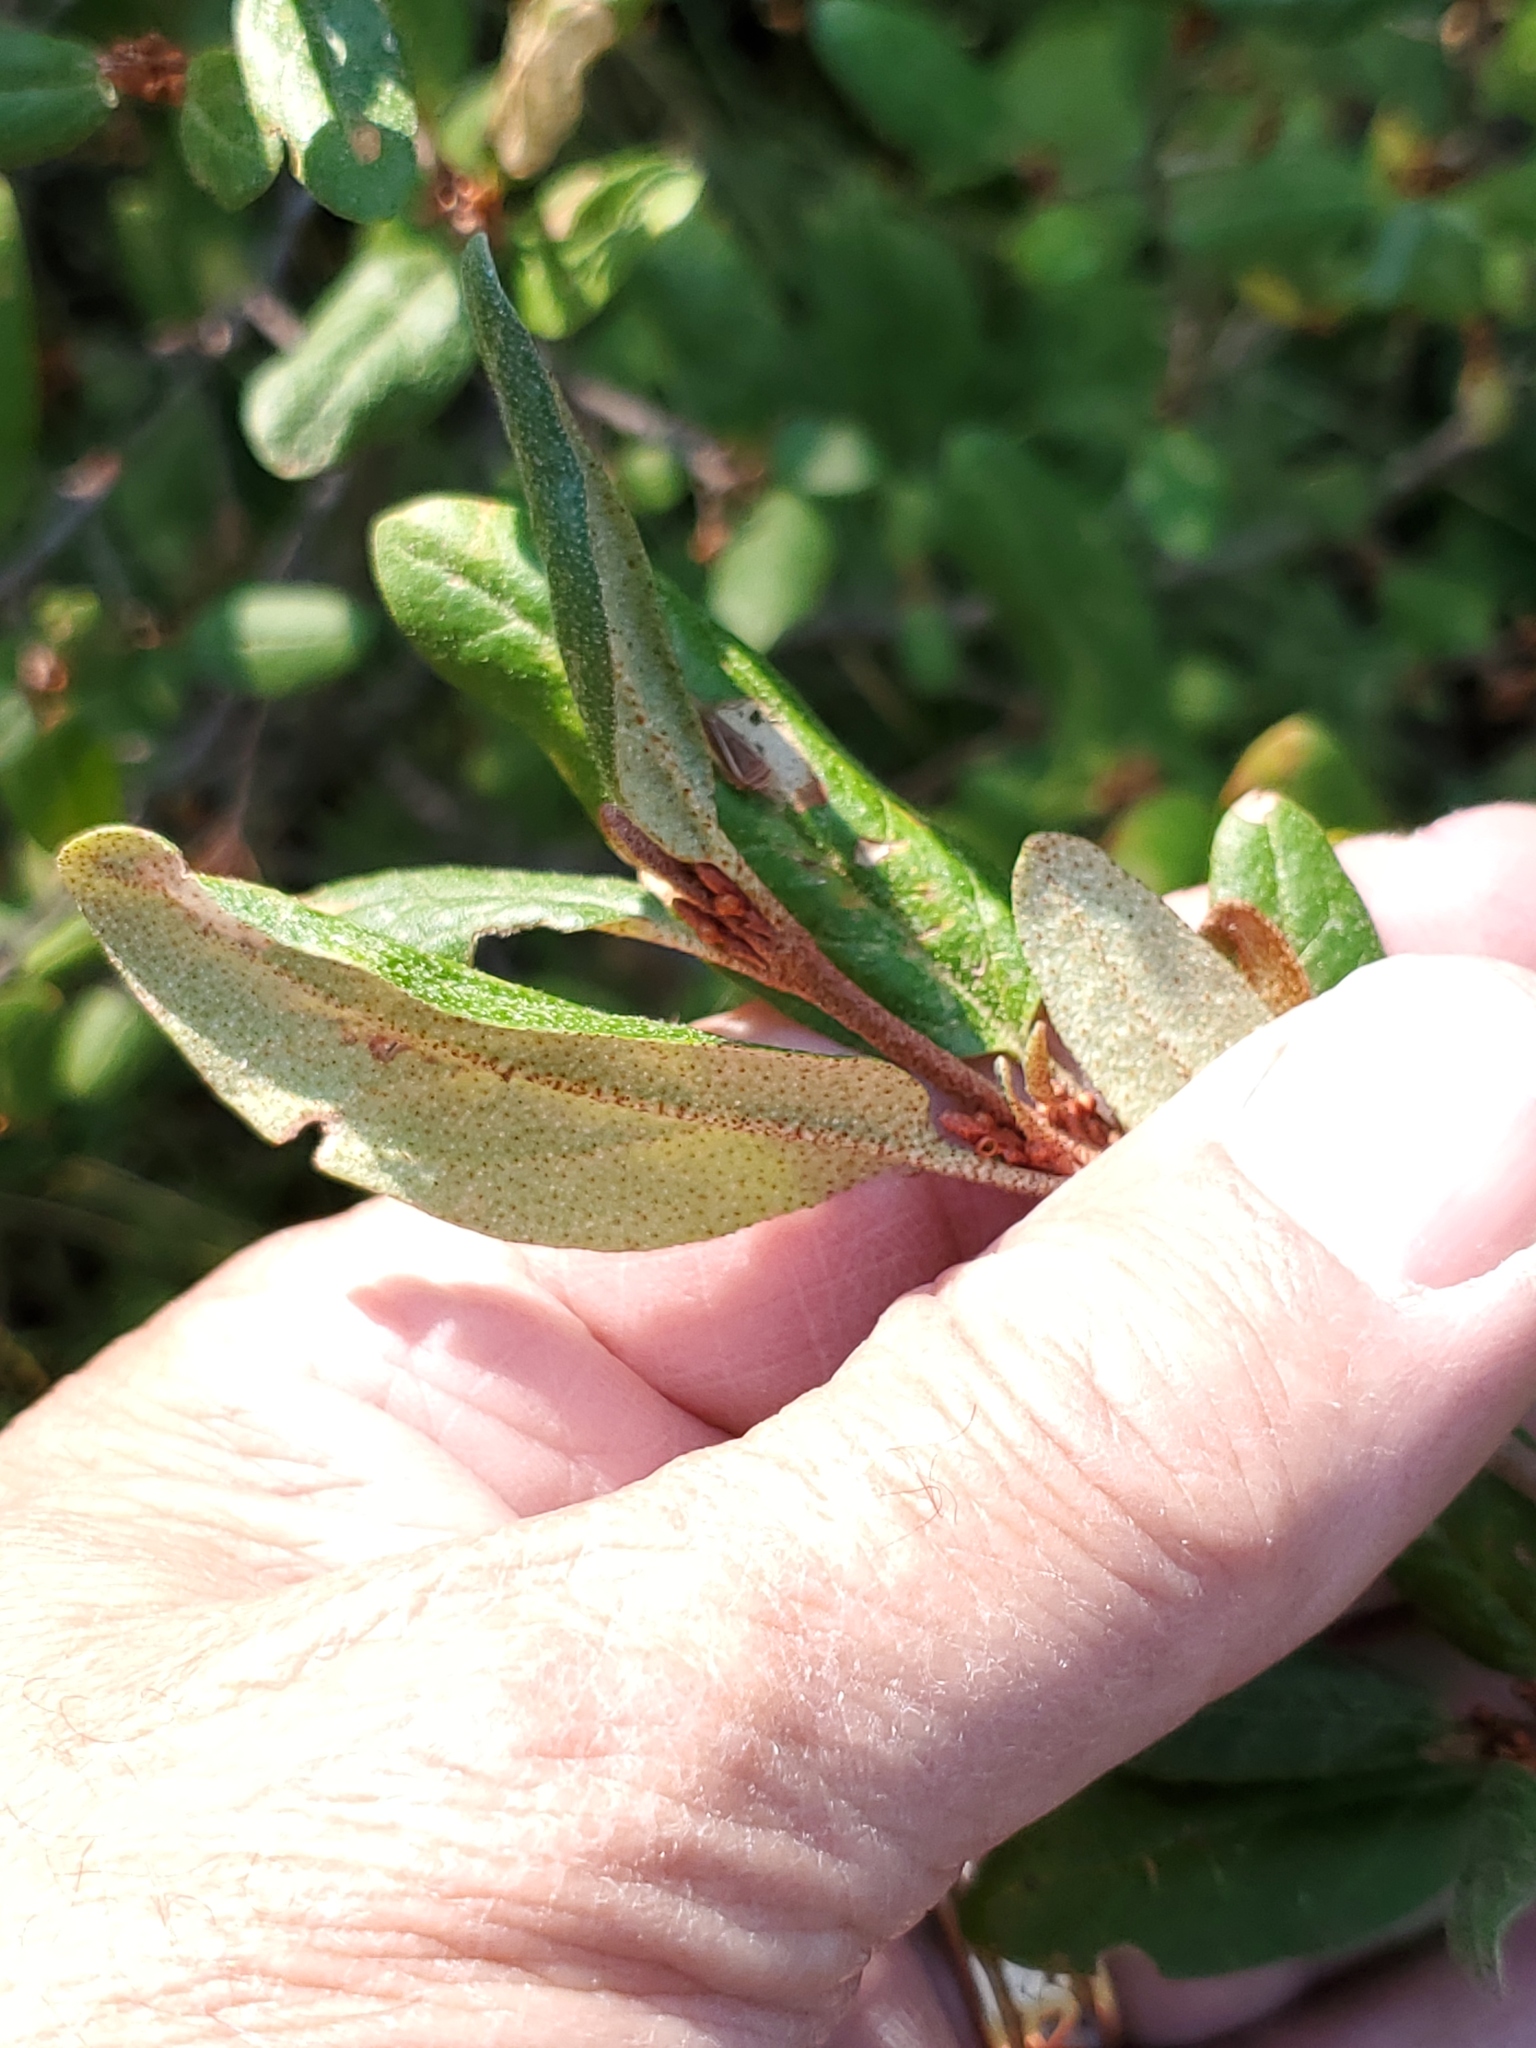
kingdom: Plantae
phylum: Tracheophyta
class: Magnoliopsida
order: Rosales
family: Elaeagnaceae
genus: Shepherdia
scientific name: Shepherdia canadensis
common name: Soapberry
